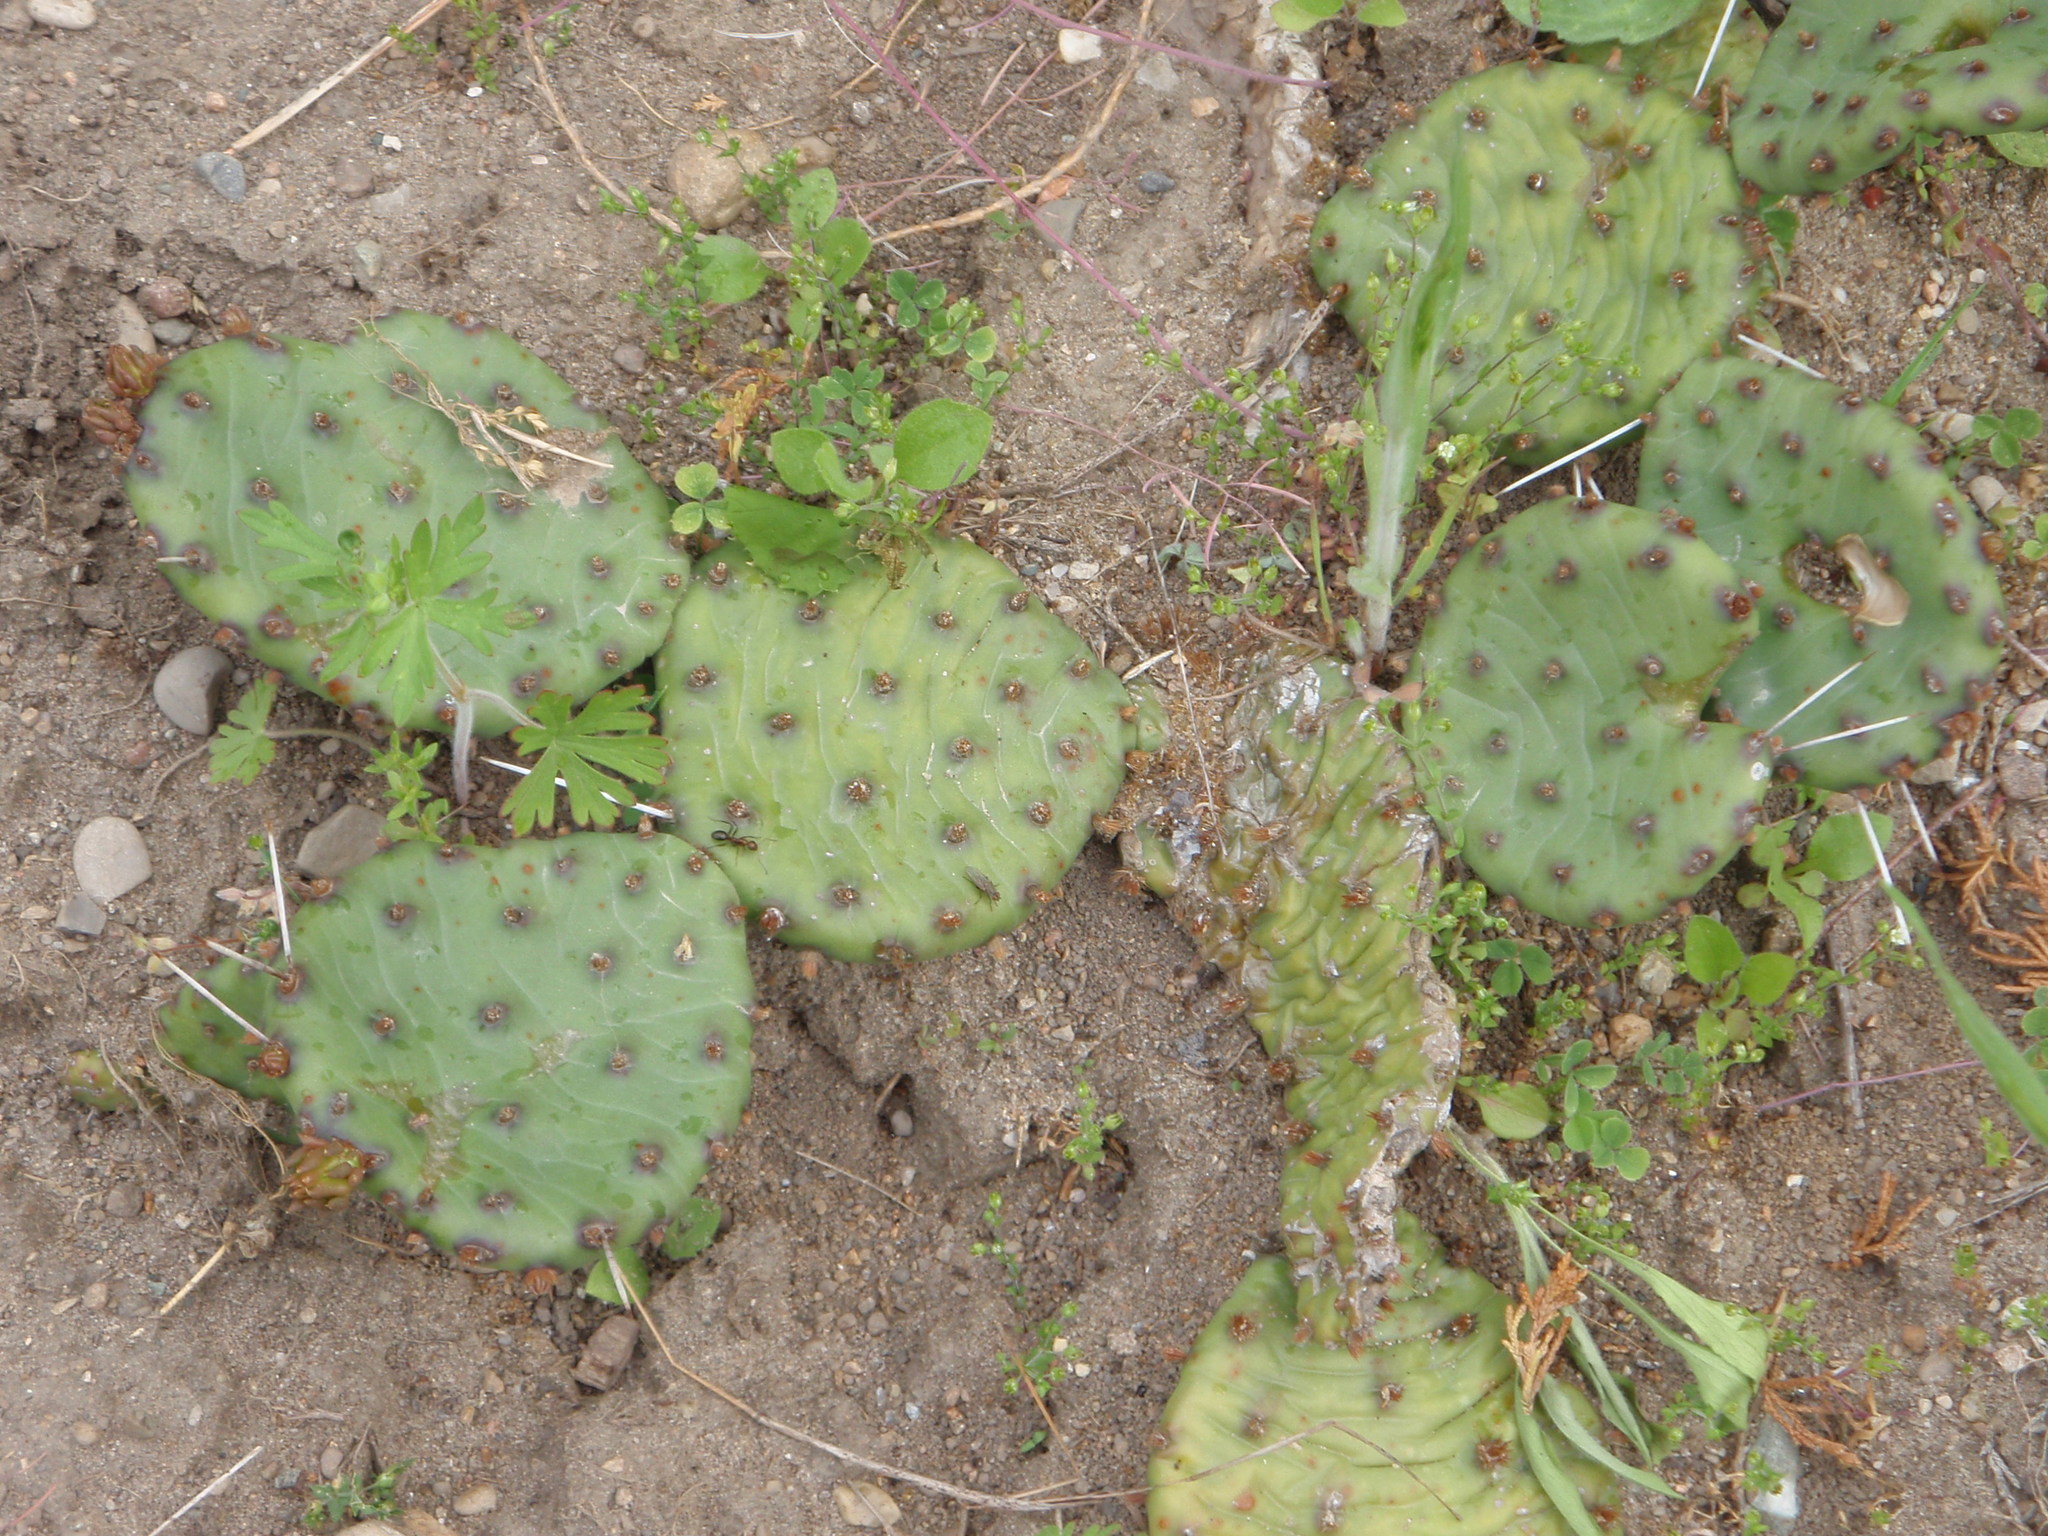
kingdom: Plantae
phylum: Tracheophyta
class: Magnoliopsida
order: Caryophyllales
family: Cactaceae
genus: Opuntia
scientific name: Opuntia humifusa
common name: Eastern prickly-pear
